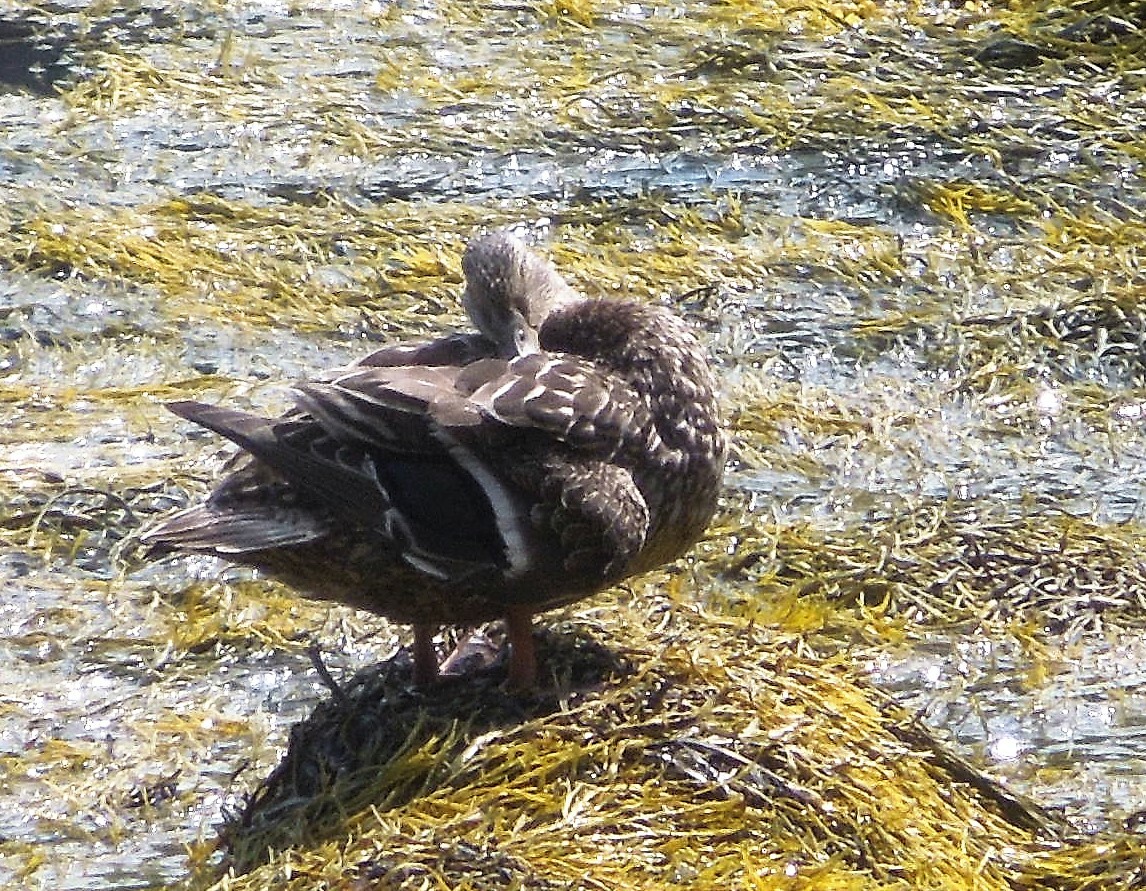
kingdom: Animalia
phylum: Chordata
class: Aves
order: Anseriformes
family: Anatidae
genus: Anas
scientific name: Anas platyrhynchos
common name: Mallard
